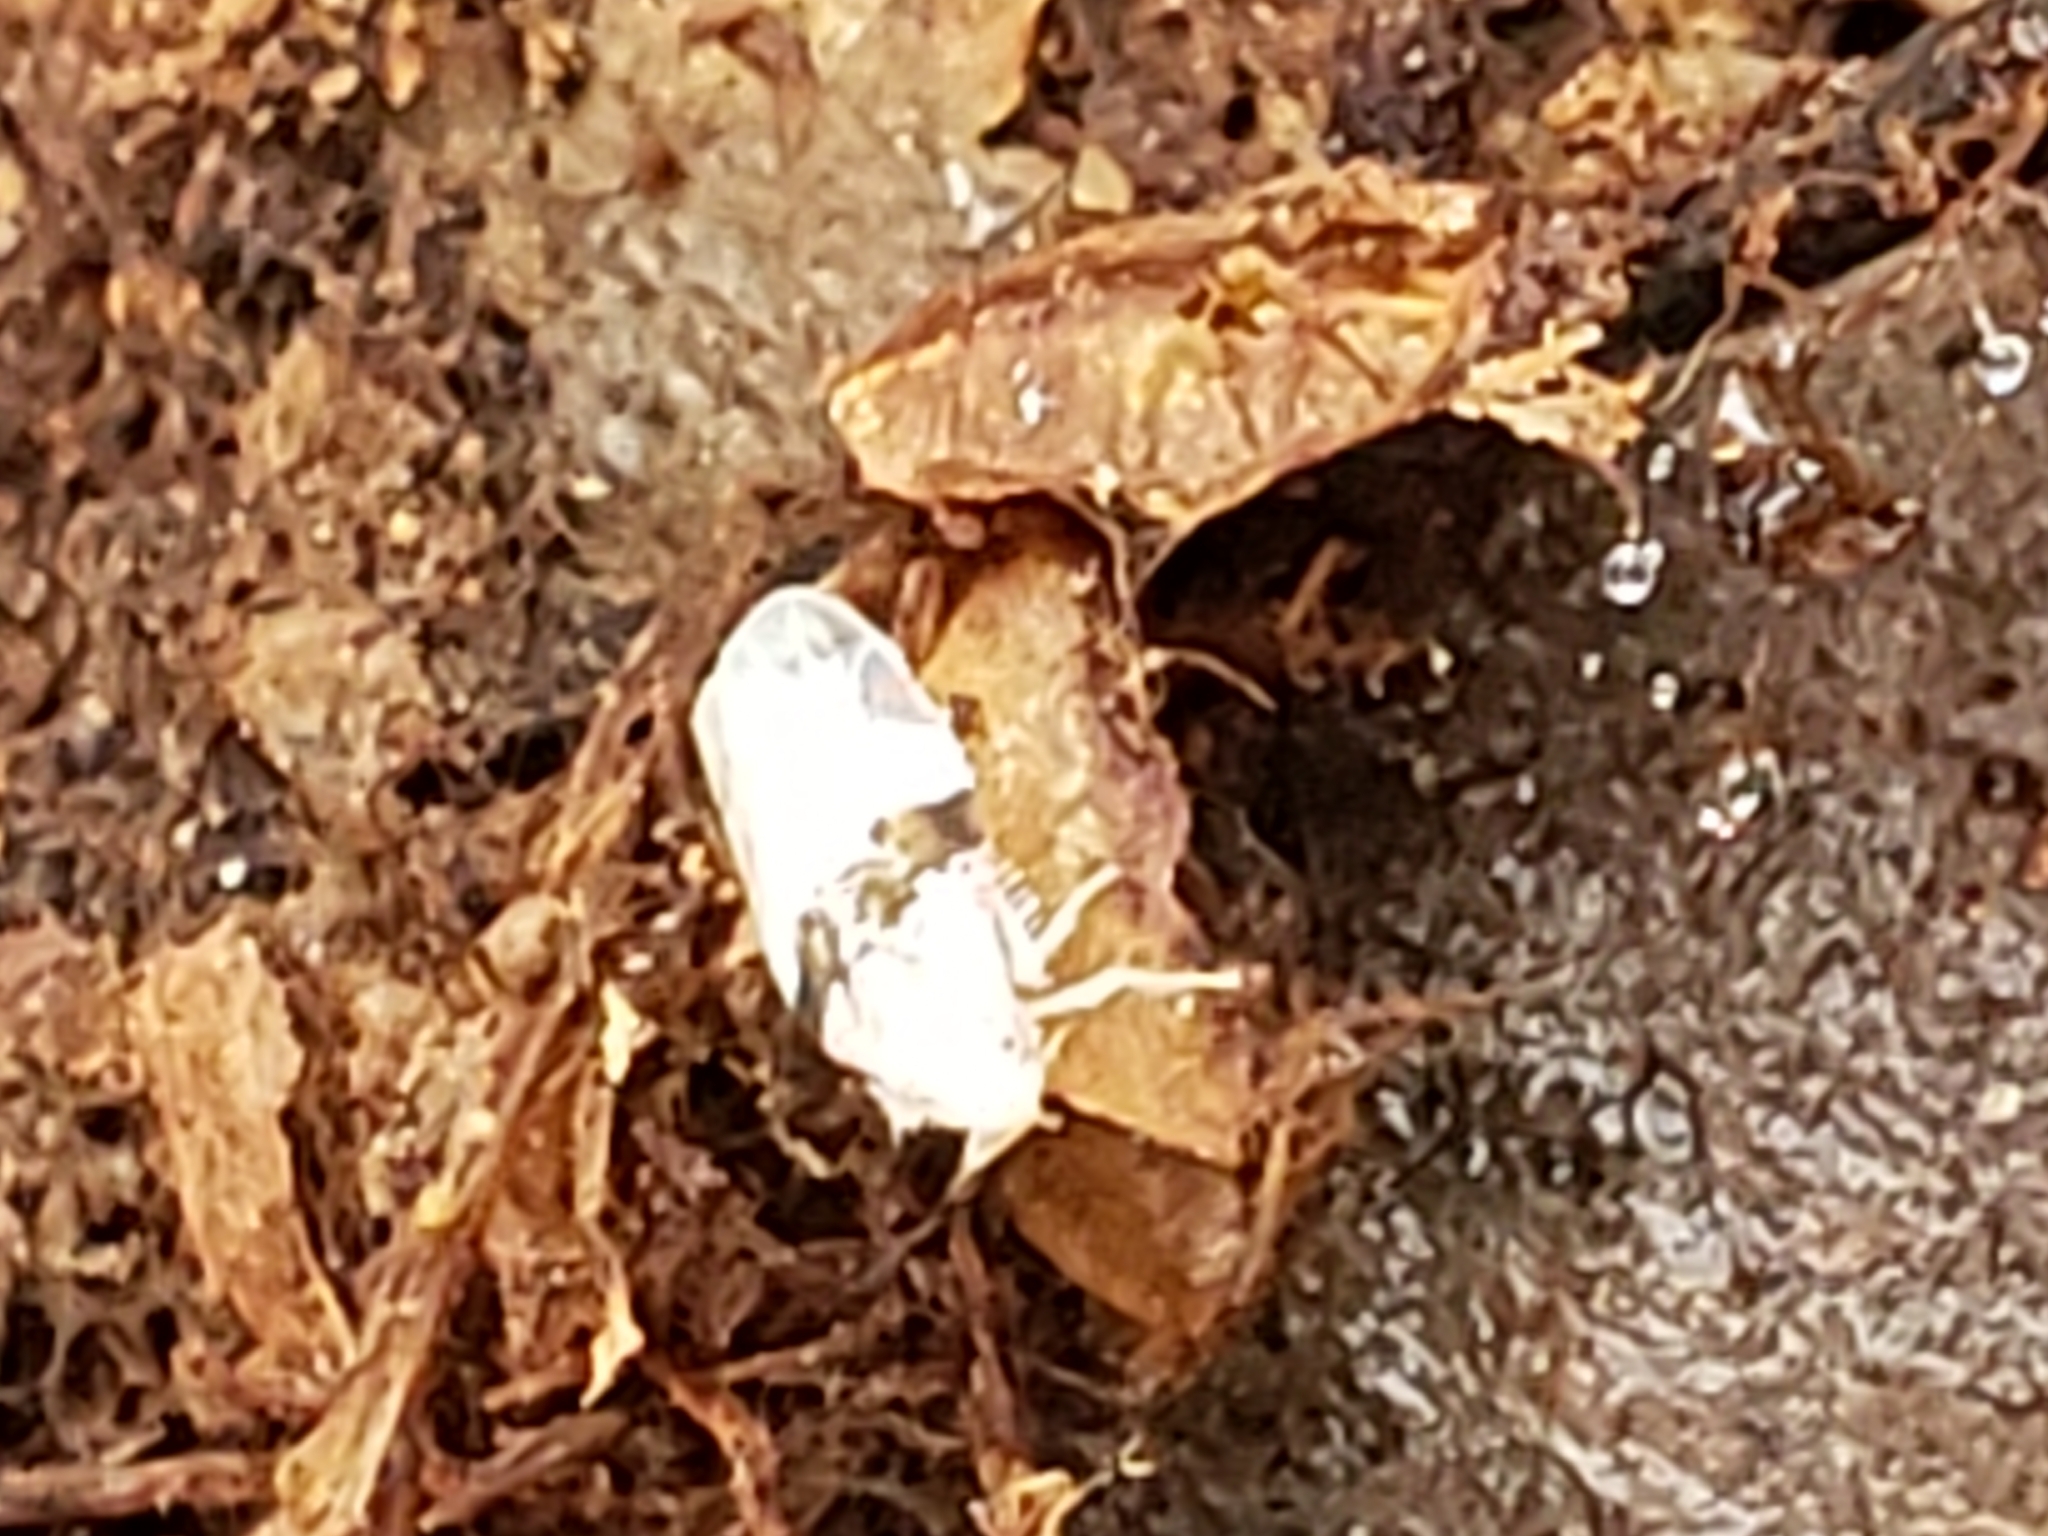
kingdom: Animalia
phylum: Arthropoda
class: Insecta
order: Hemiptera
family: Cicadellidae
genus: Hymetta
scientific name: Hymetta anthisma
